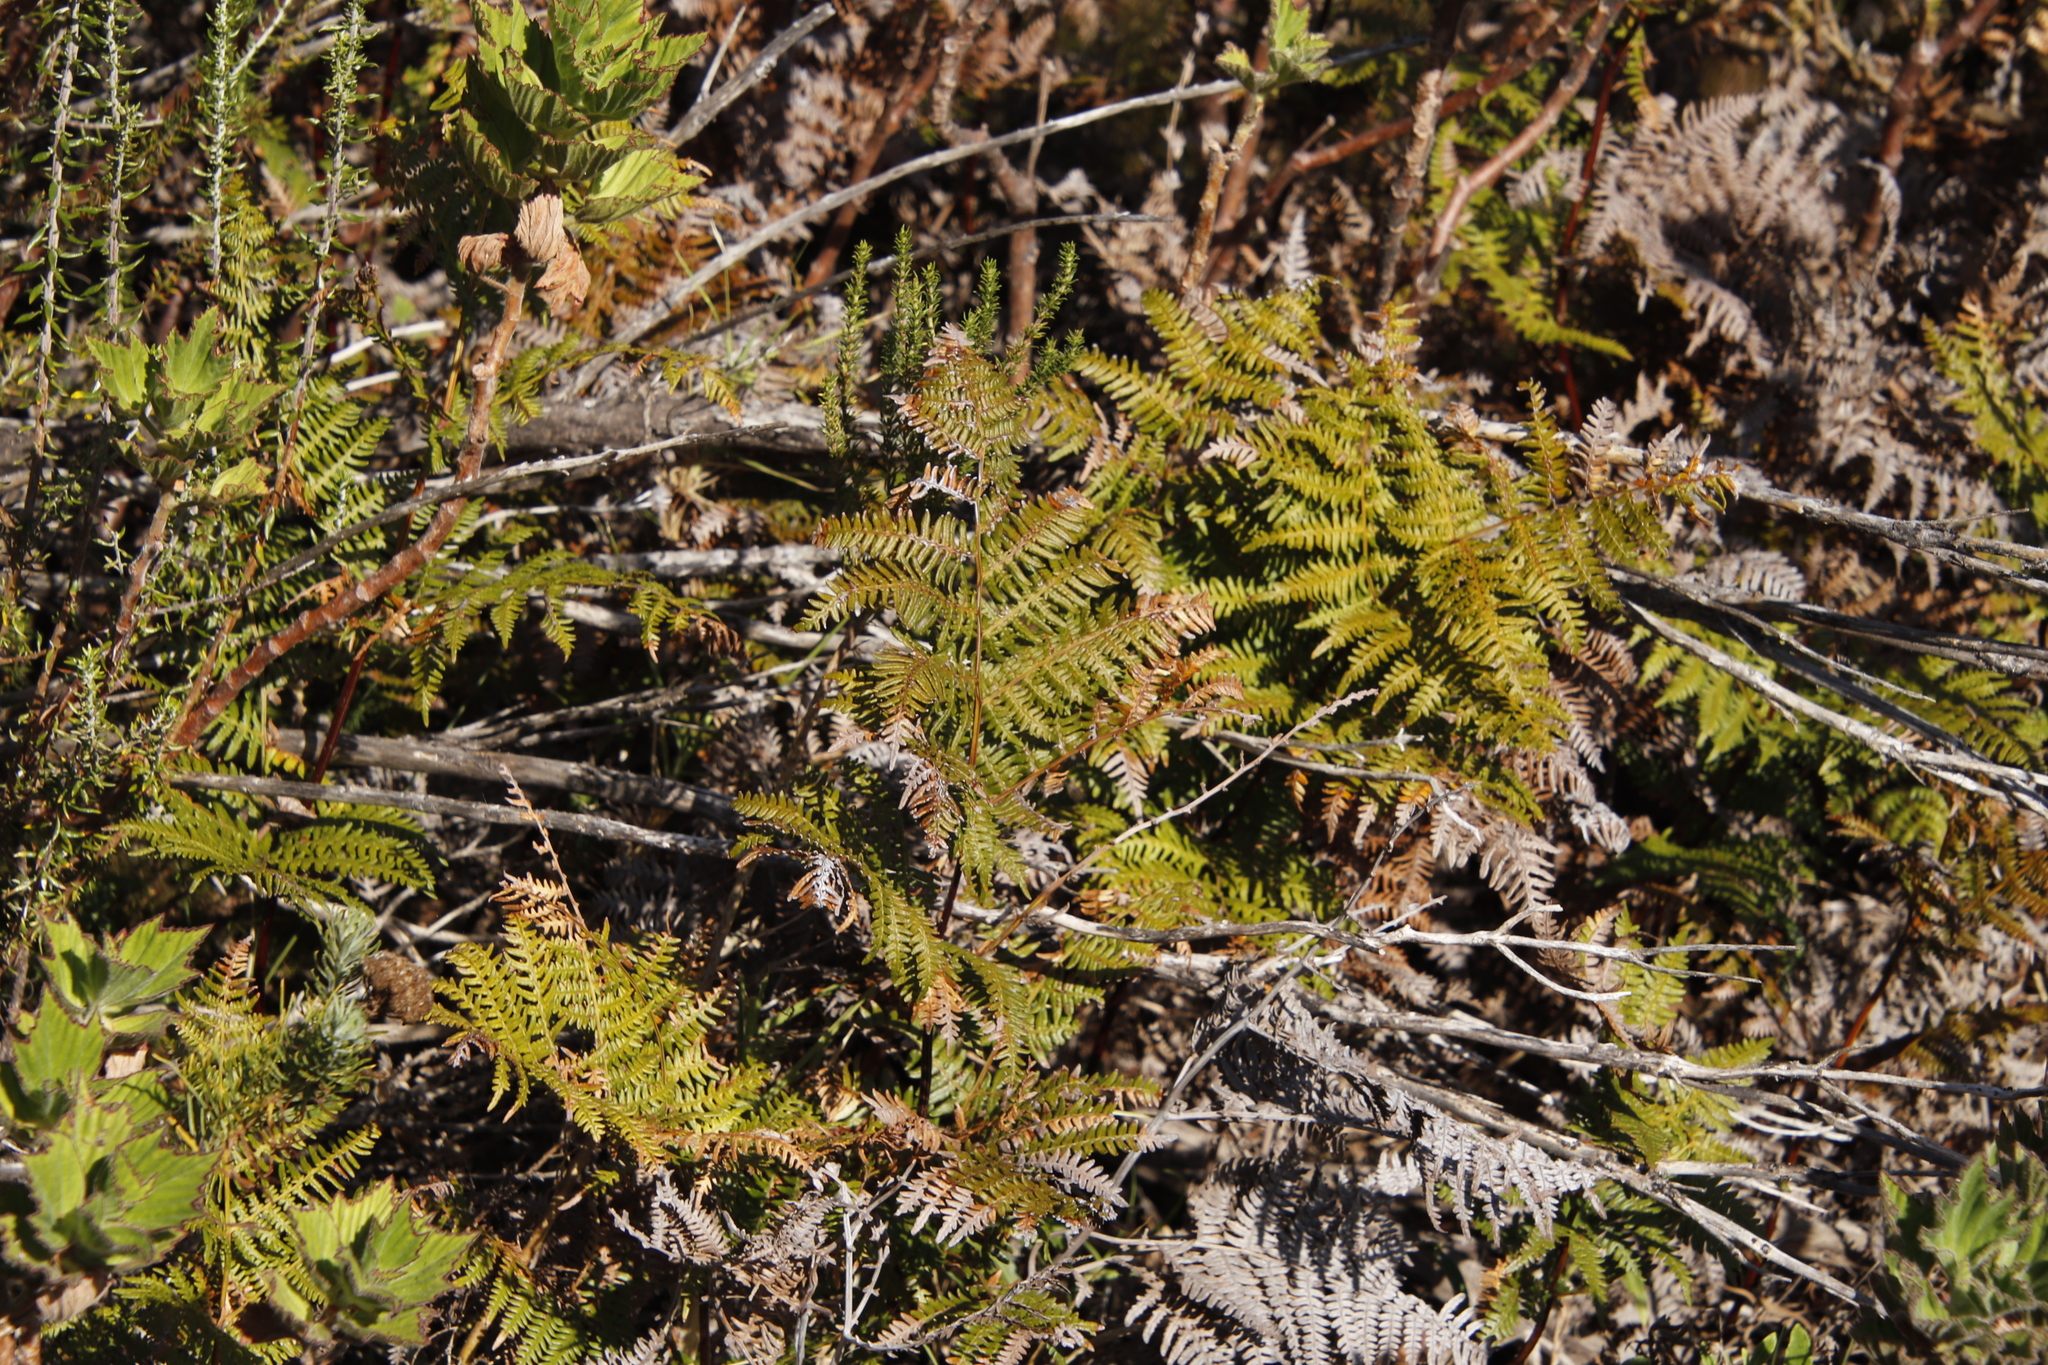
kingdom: Plantae
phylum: Tracheophyta
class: Polypodiopsida
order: Polypodiales
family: Dennstaedtiaceae
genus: Pteridium
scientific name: Pteridium aquilinum
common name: Bracken
